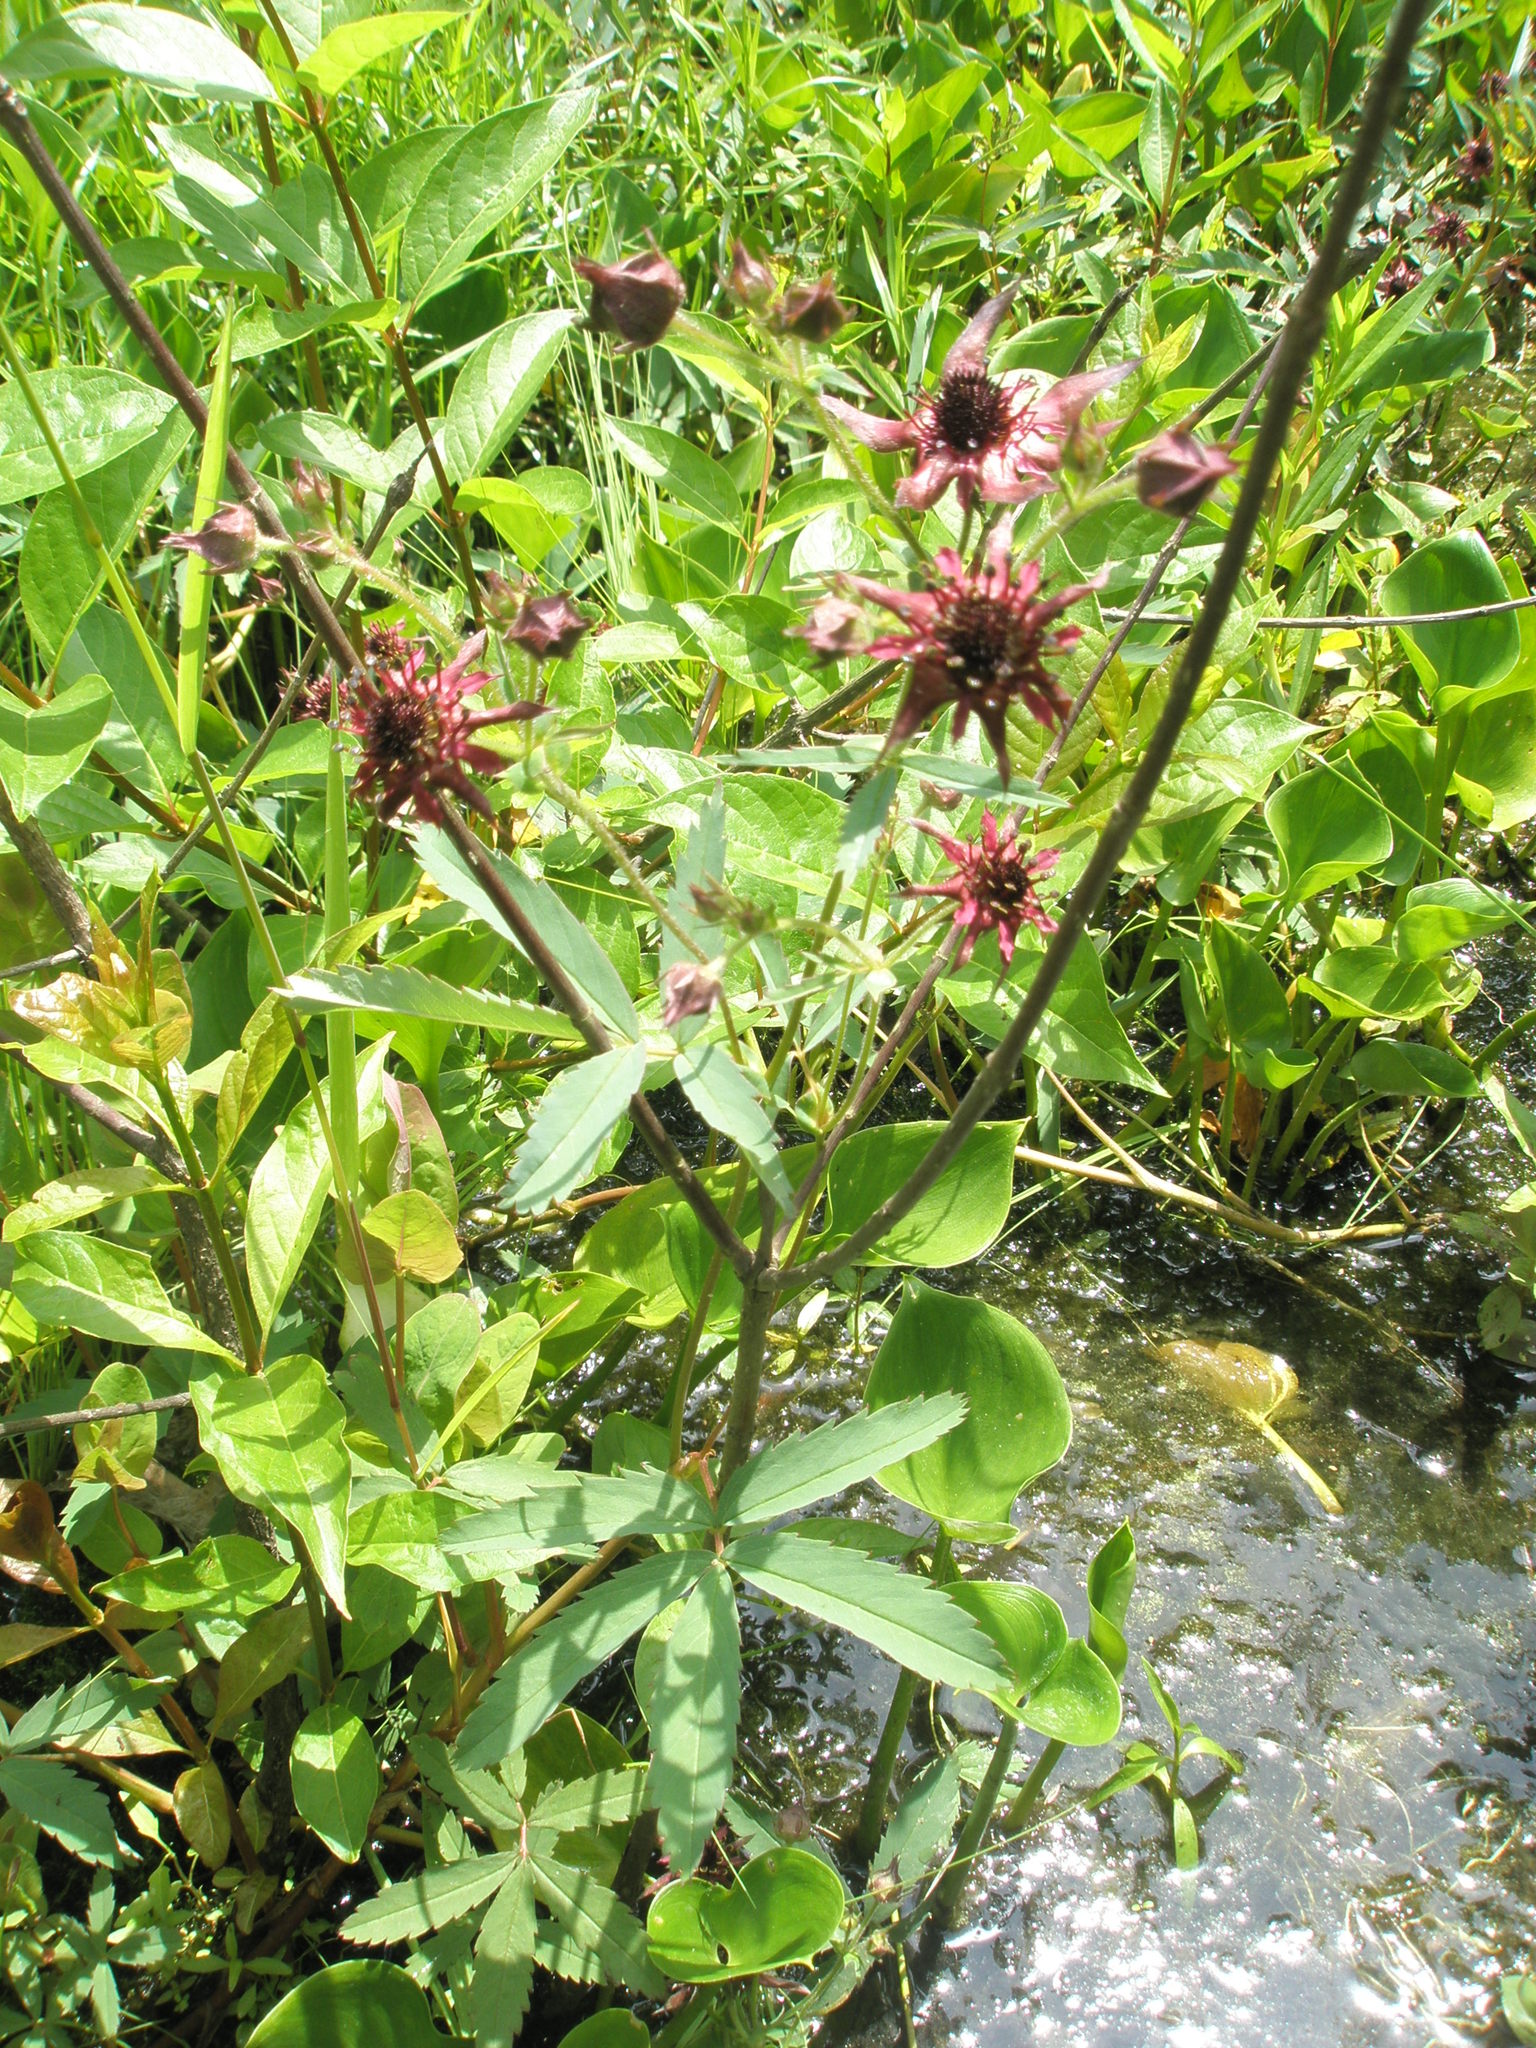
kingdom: Plantae
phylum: Tracheophyta
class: Magnoliopsida
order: Rosales
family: Rosaceae
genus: Comarum
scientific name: Comarum palustre
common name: Marsh cinquefoil
